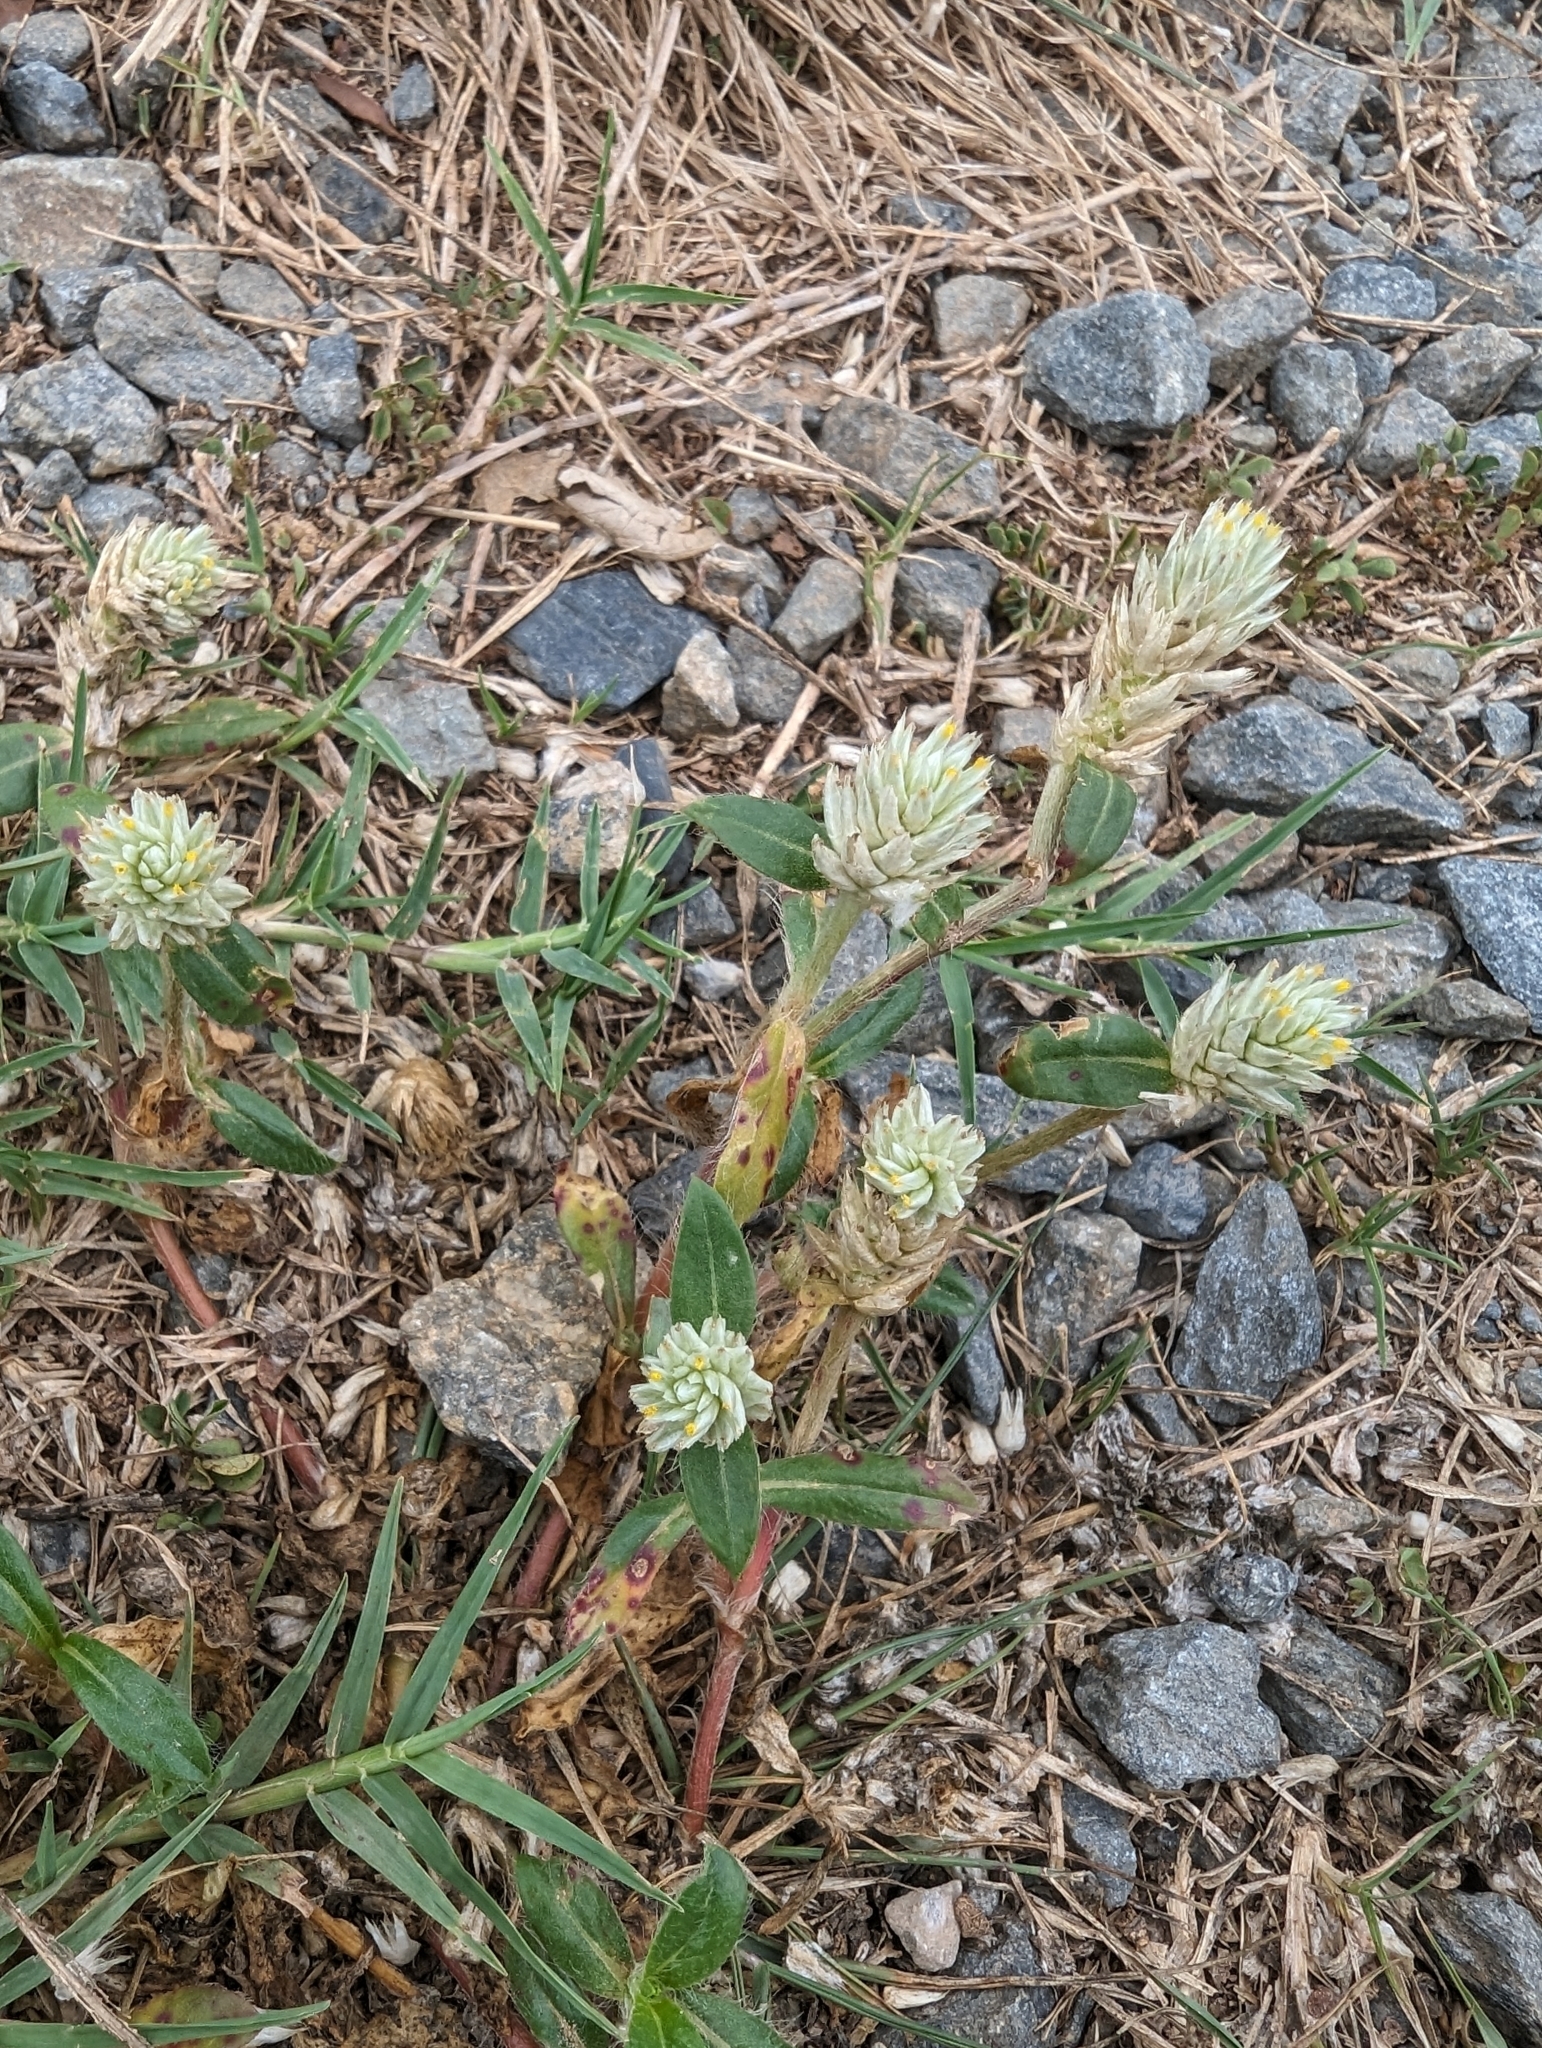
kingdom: Plantae
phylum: Tracheophyta
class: Magnoliopsida
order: Caryophyllales
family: Amaranthaceae
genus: Gomphrena
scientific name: Gomphrena celosioides
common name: Gomphrena-weed
